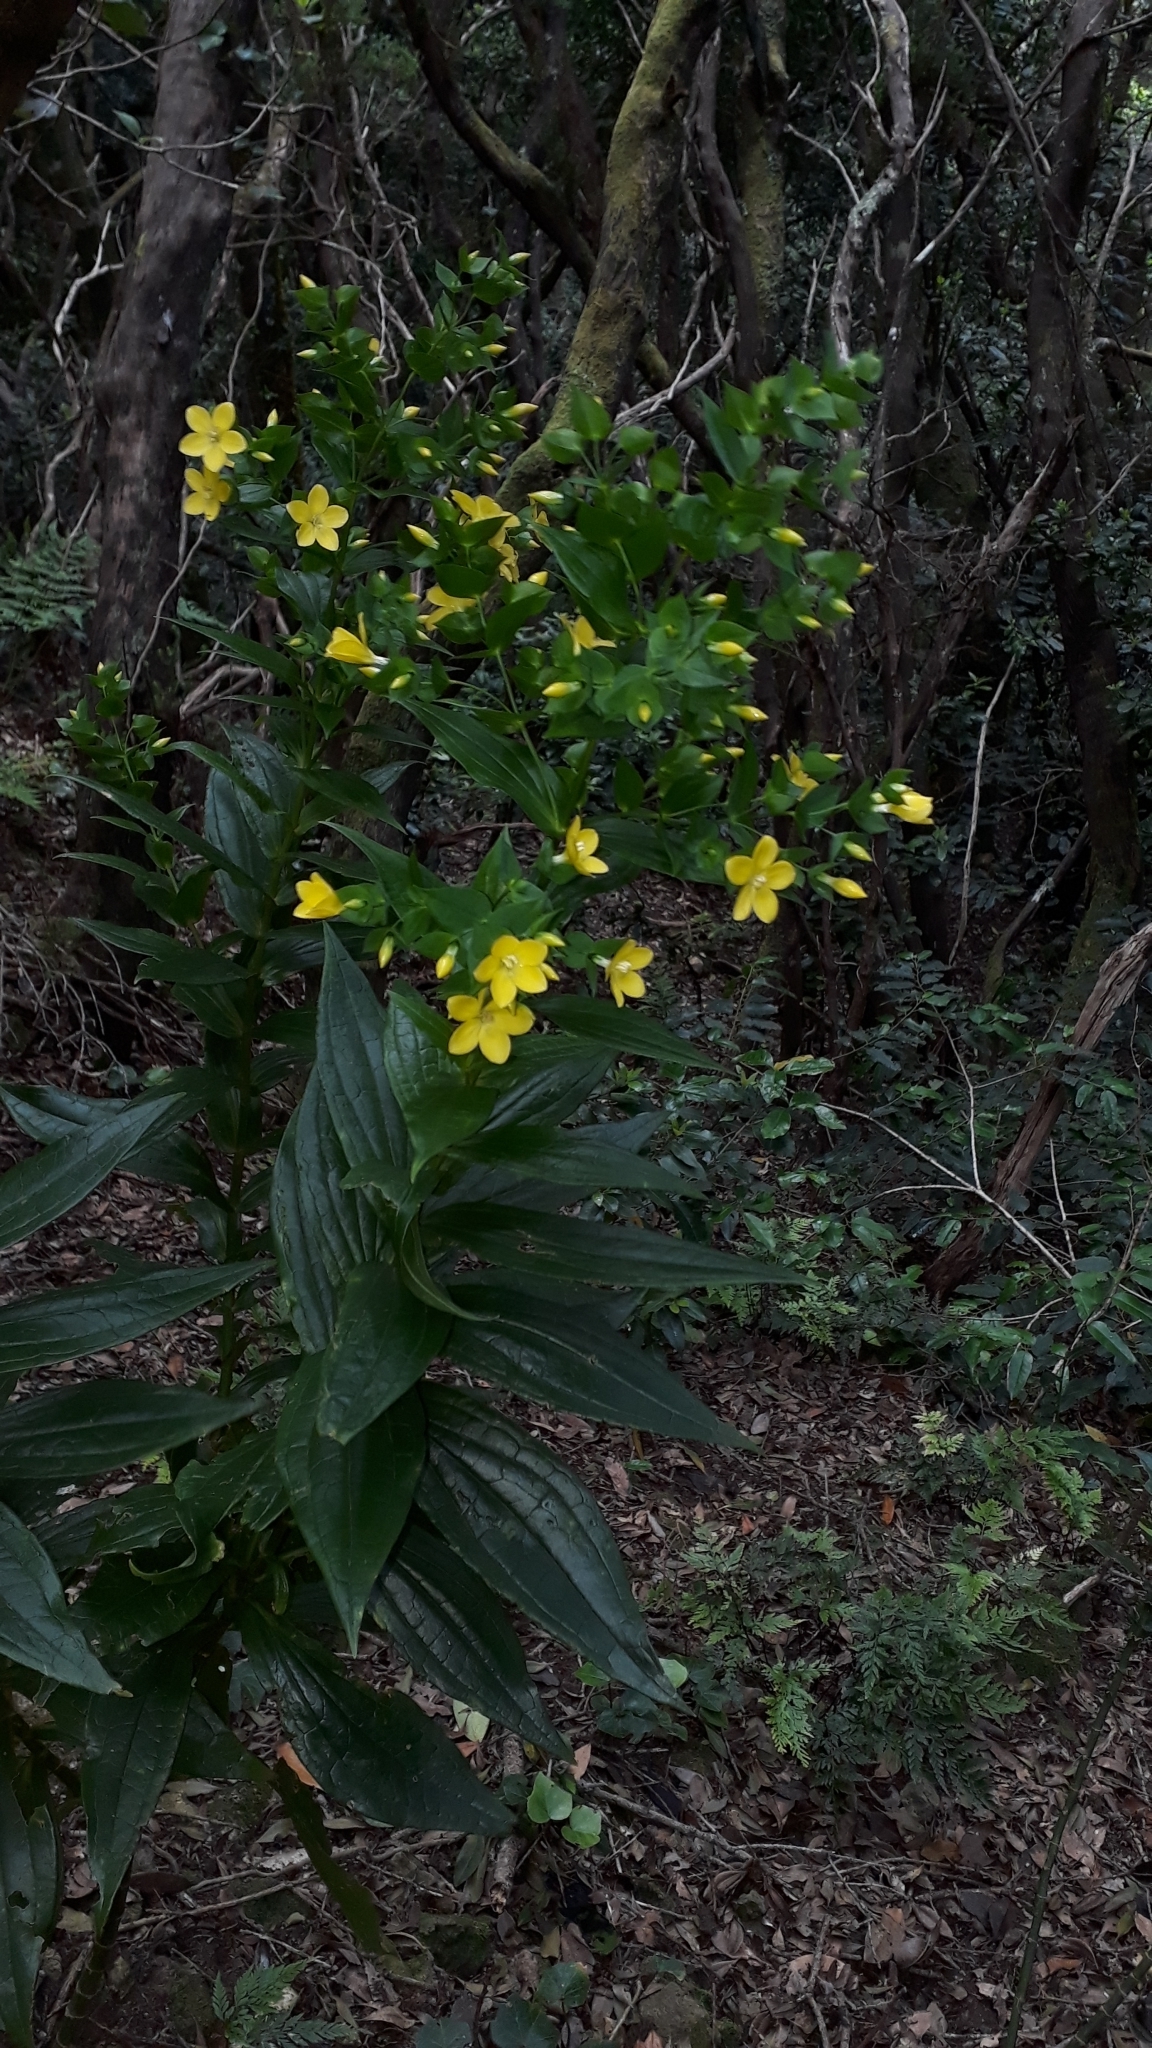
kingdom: Plantae
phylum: Tracheophyta
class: Magnoliopsida
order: Gentianales
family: Gentianaceae
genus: Ixanthus
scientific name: Ixanthus viscosus
